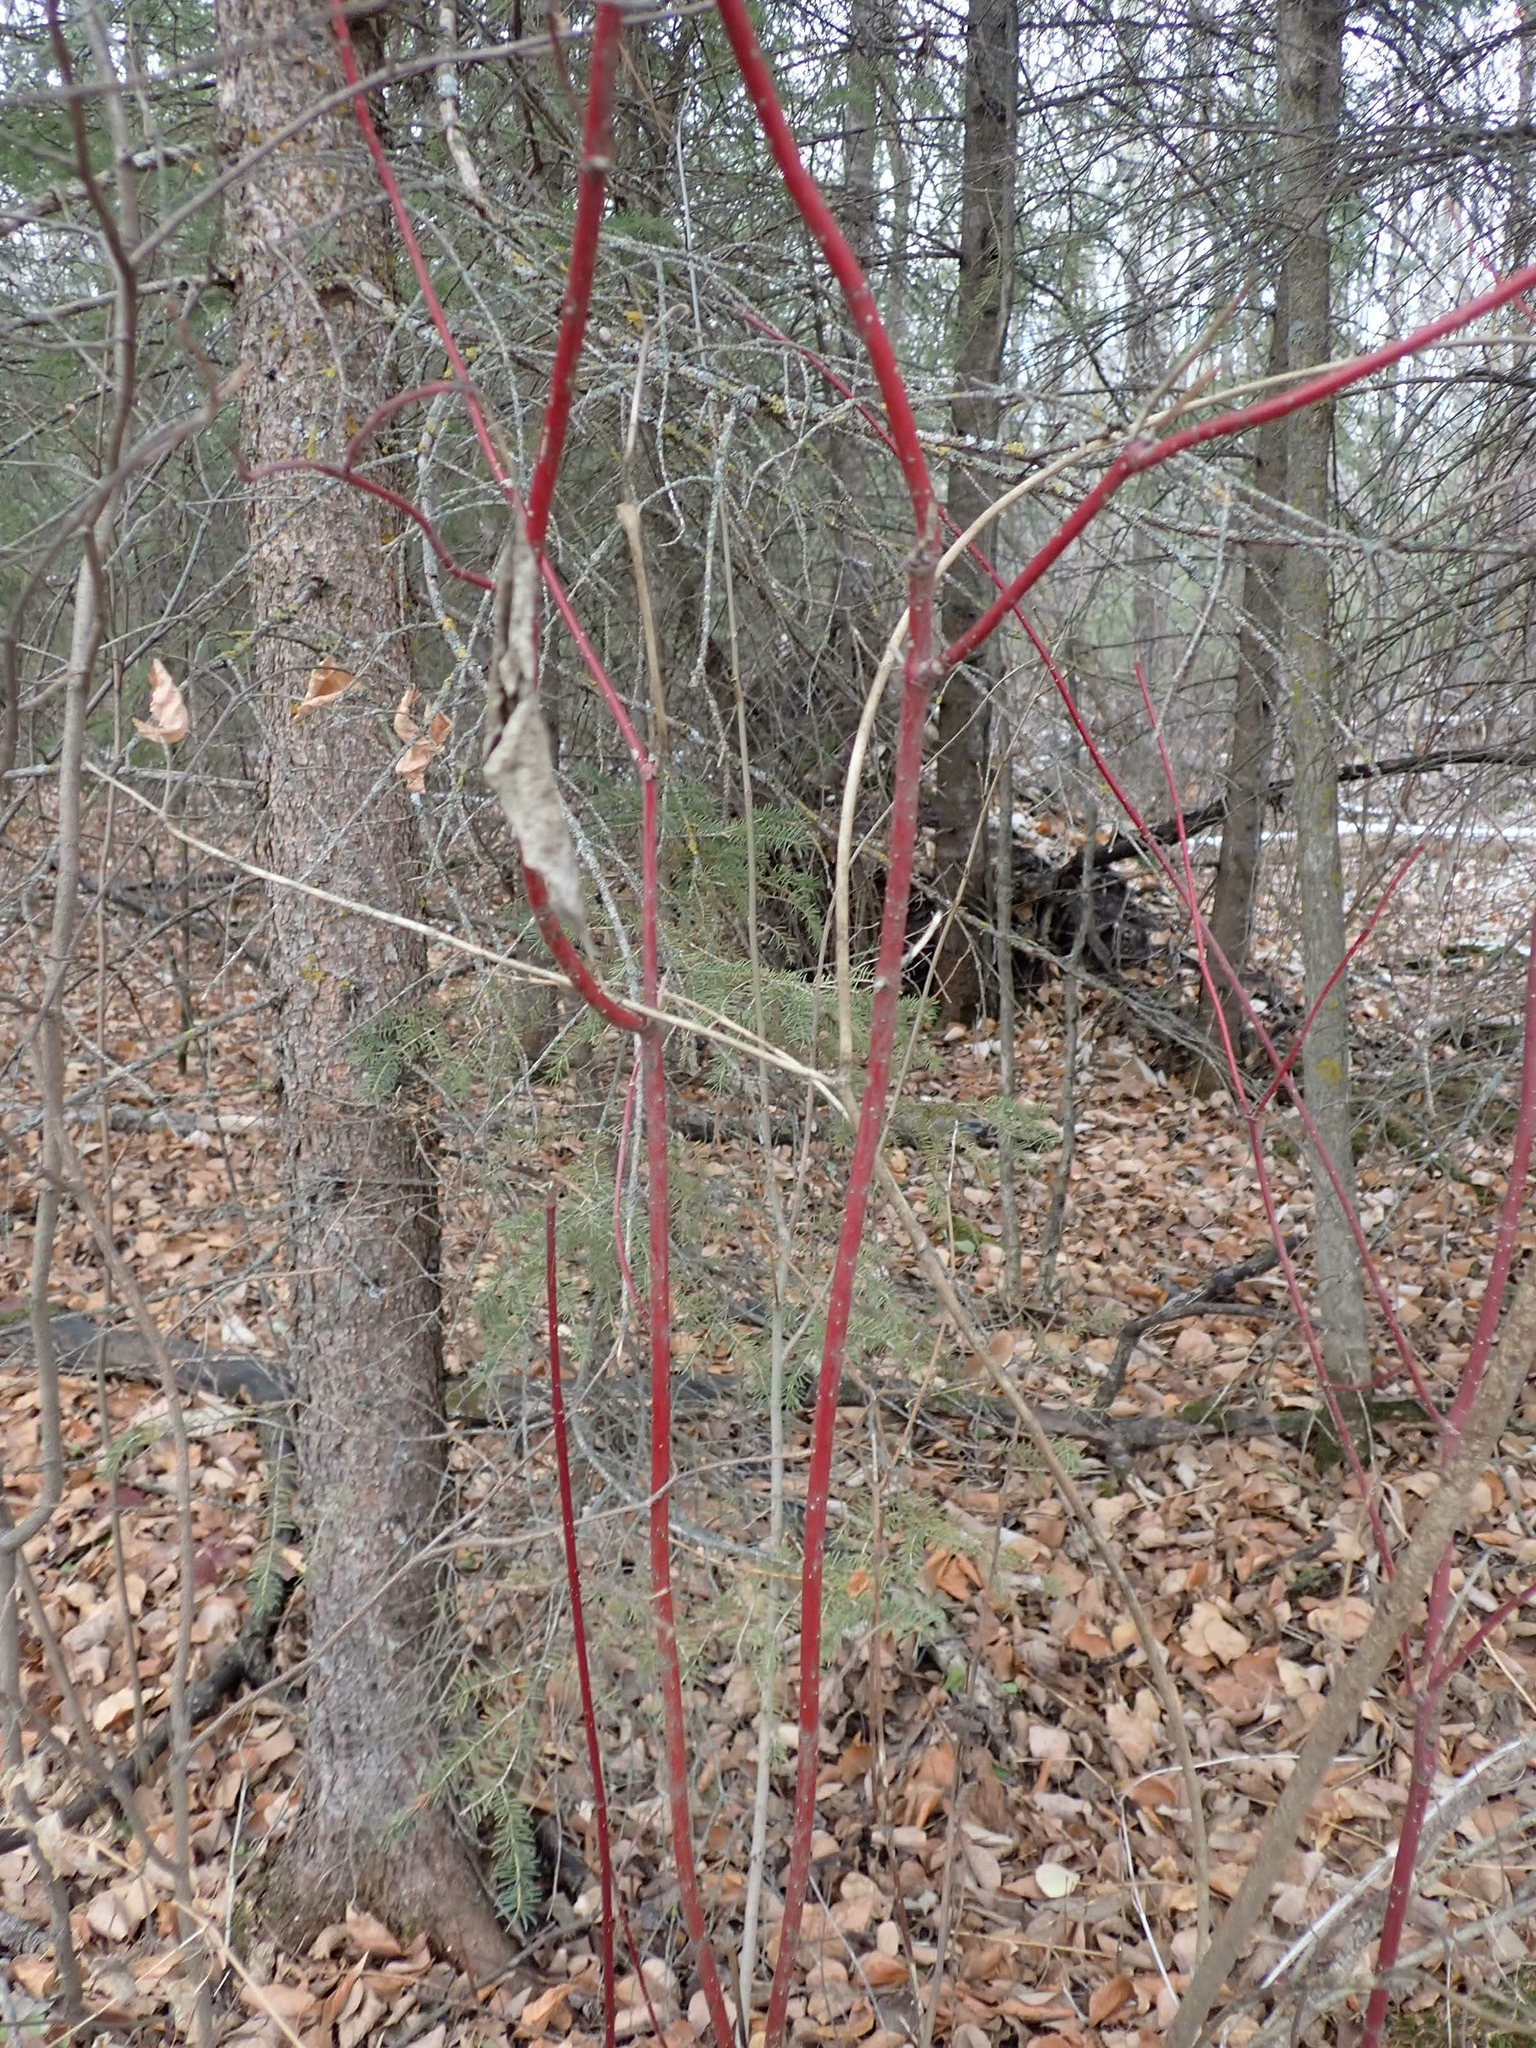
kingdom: Plantae
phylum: Tracheophyta
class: Magnoliopsida
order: Cornales
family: Cornaceae
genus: Cornus
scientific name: Cornus sericea
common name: Red-osier dogwood
